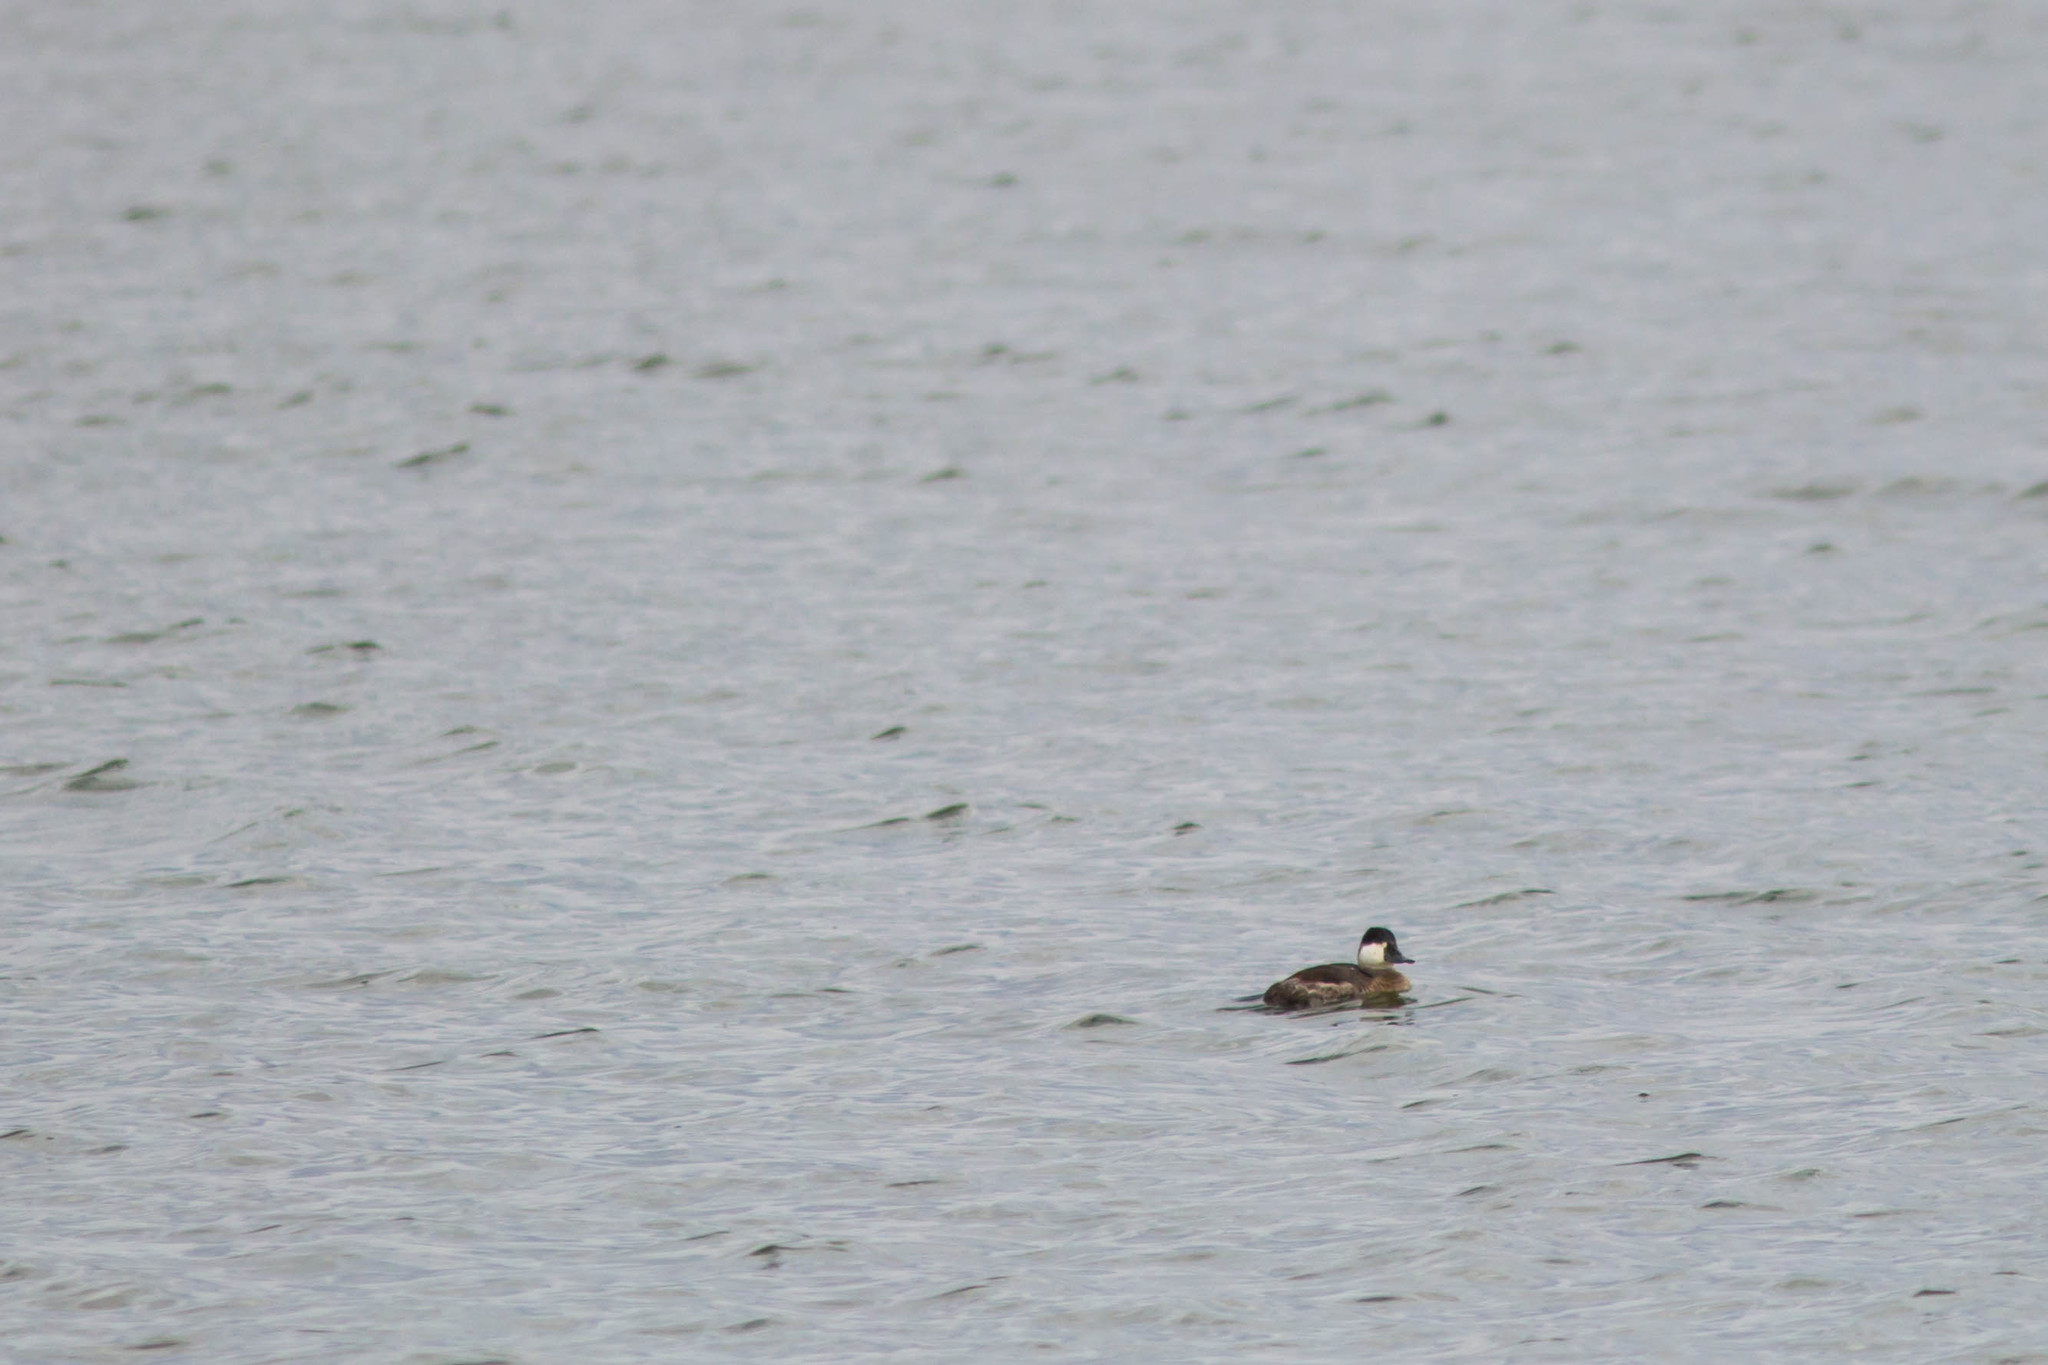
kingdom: Animalia
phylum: Chordata
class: Aves
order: Anseriformes
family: Anatidae
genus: Oxyura
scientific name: Oxyura jamaicensis
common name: Ruddy duck
